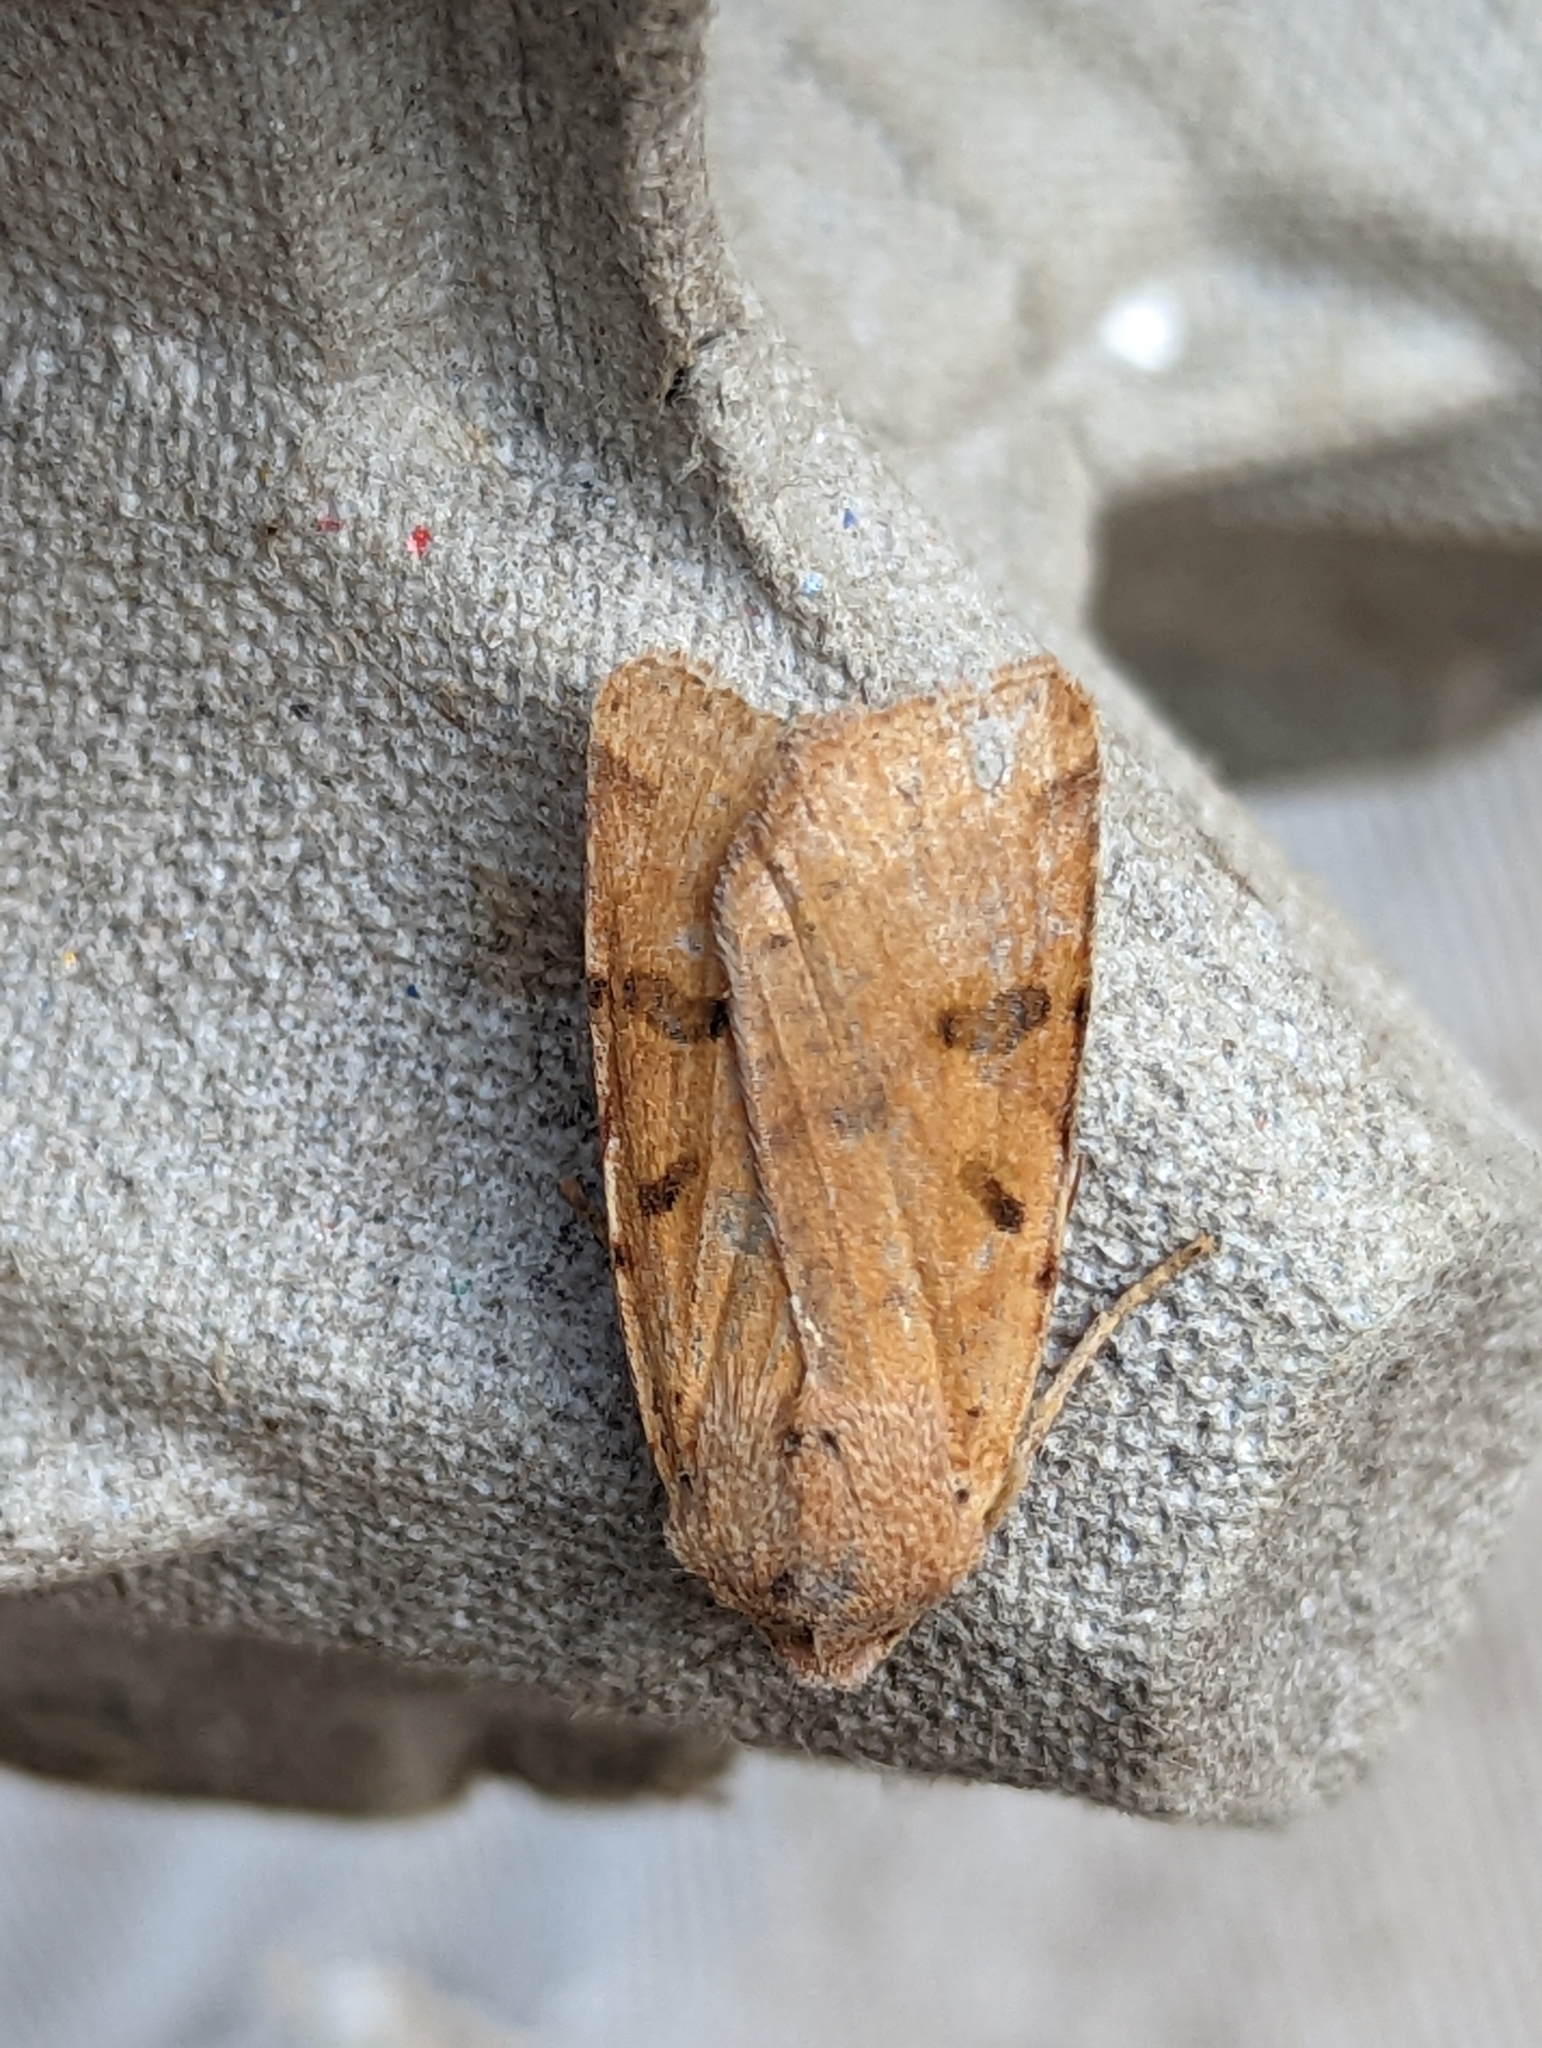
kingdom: Animalia
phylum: Arthropoda
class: Insecta
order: Lepidoptera
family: Noctuidae
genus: Agrochola
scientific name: Agrochola lychnidis
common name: Beaded chestnut
